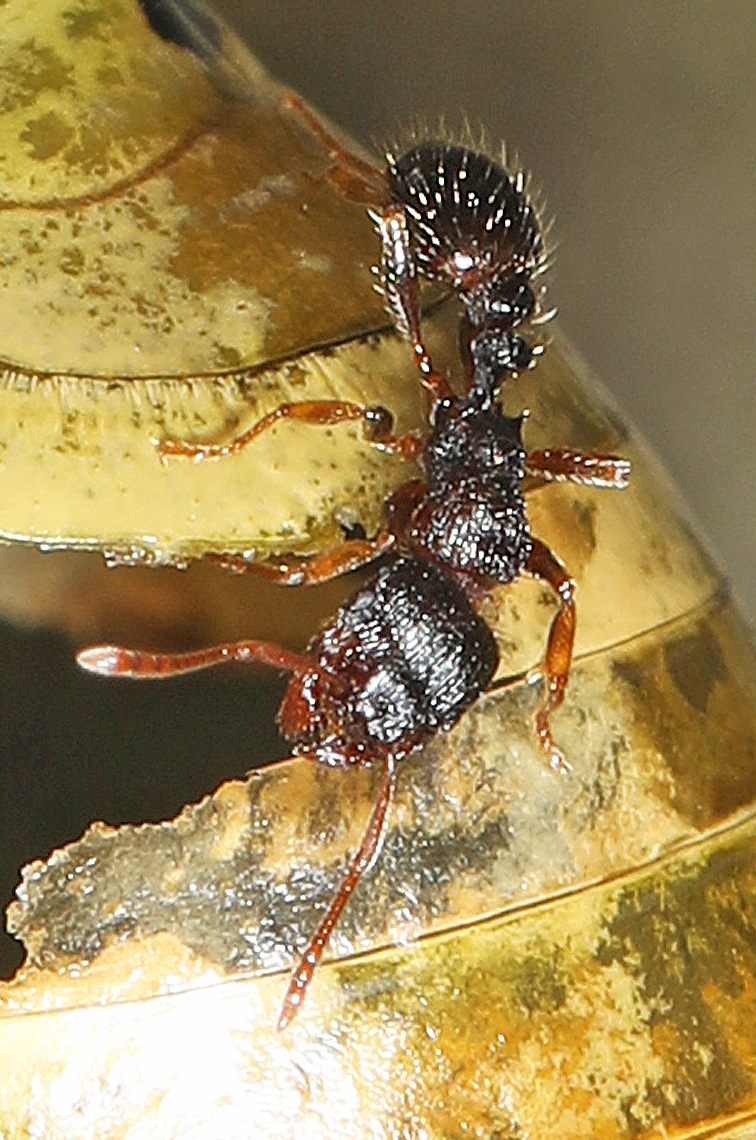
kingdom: Animalia
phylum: Arthropoda
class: Insecta
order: Hymenoptera
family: Formicidae
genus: Tetramorium
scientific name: Tetramorium immigrans
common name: Pavement ant
